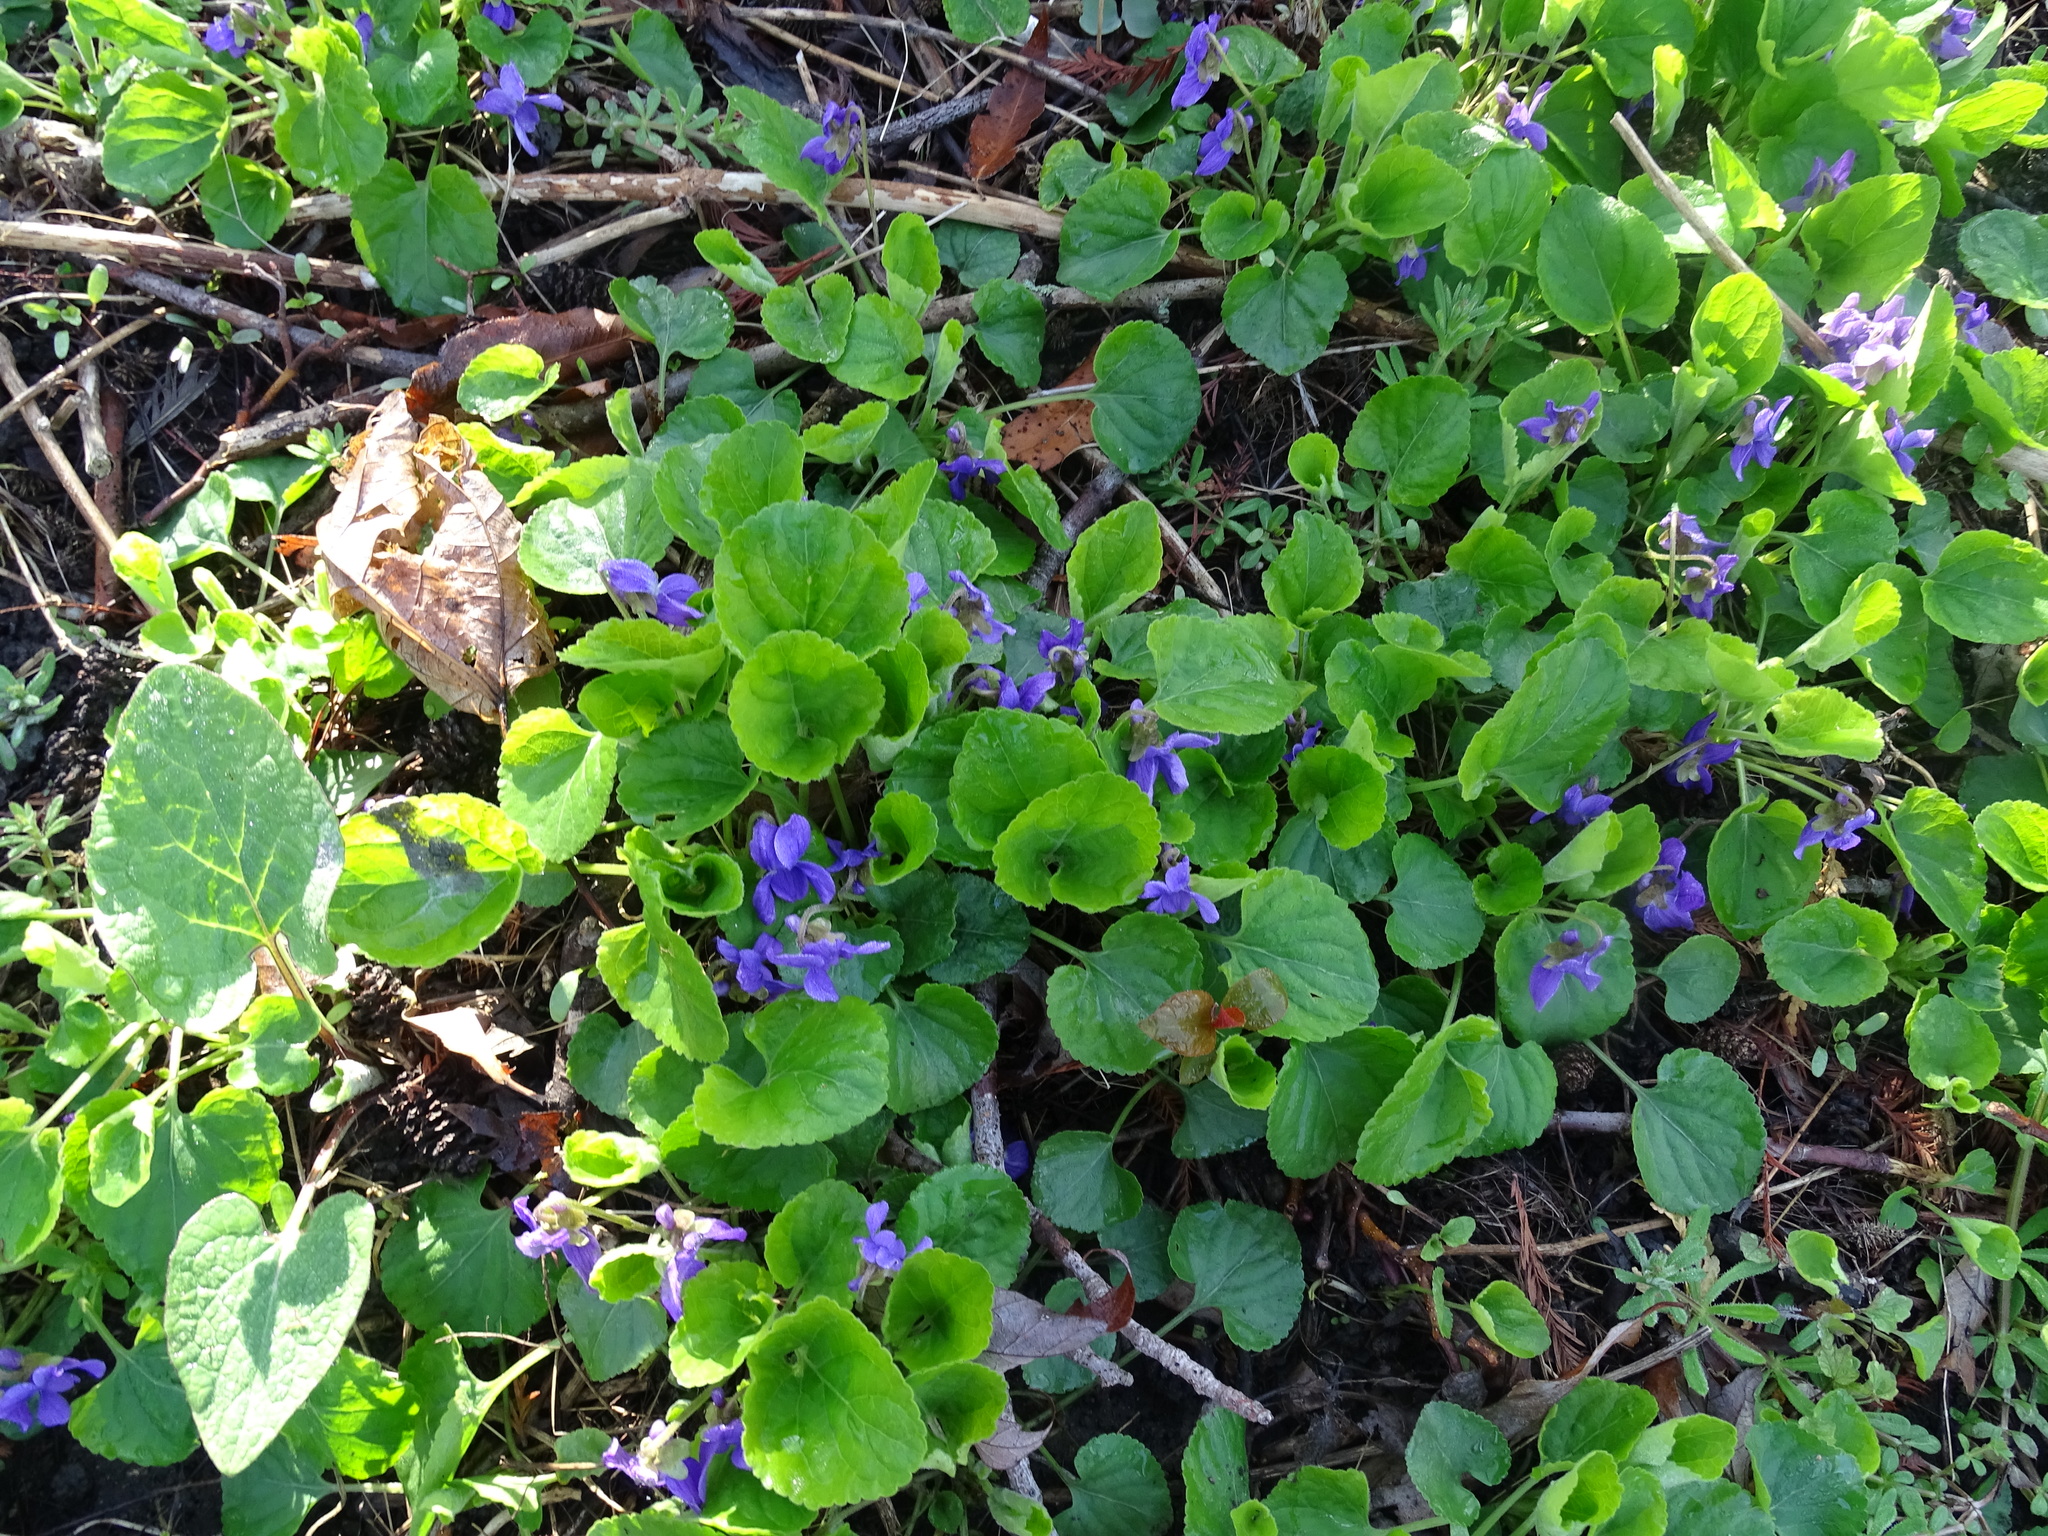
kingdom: Plantae
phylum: Tracheophyta
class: Magnoliopsida
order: Malpighiales
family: Violaceae
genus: Viola
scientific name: Viola odorata
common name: Sweet violet
